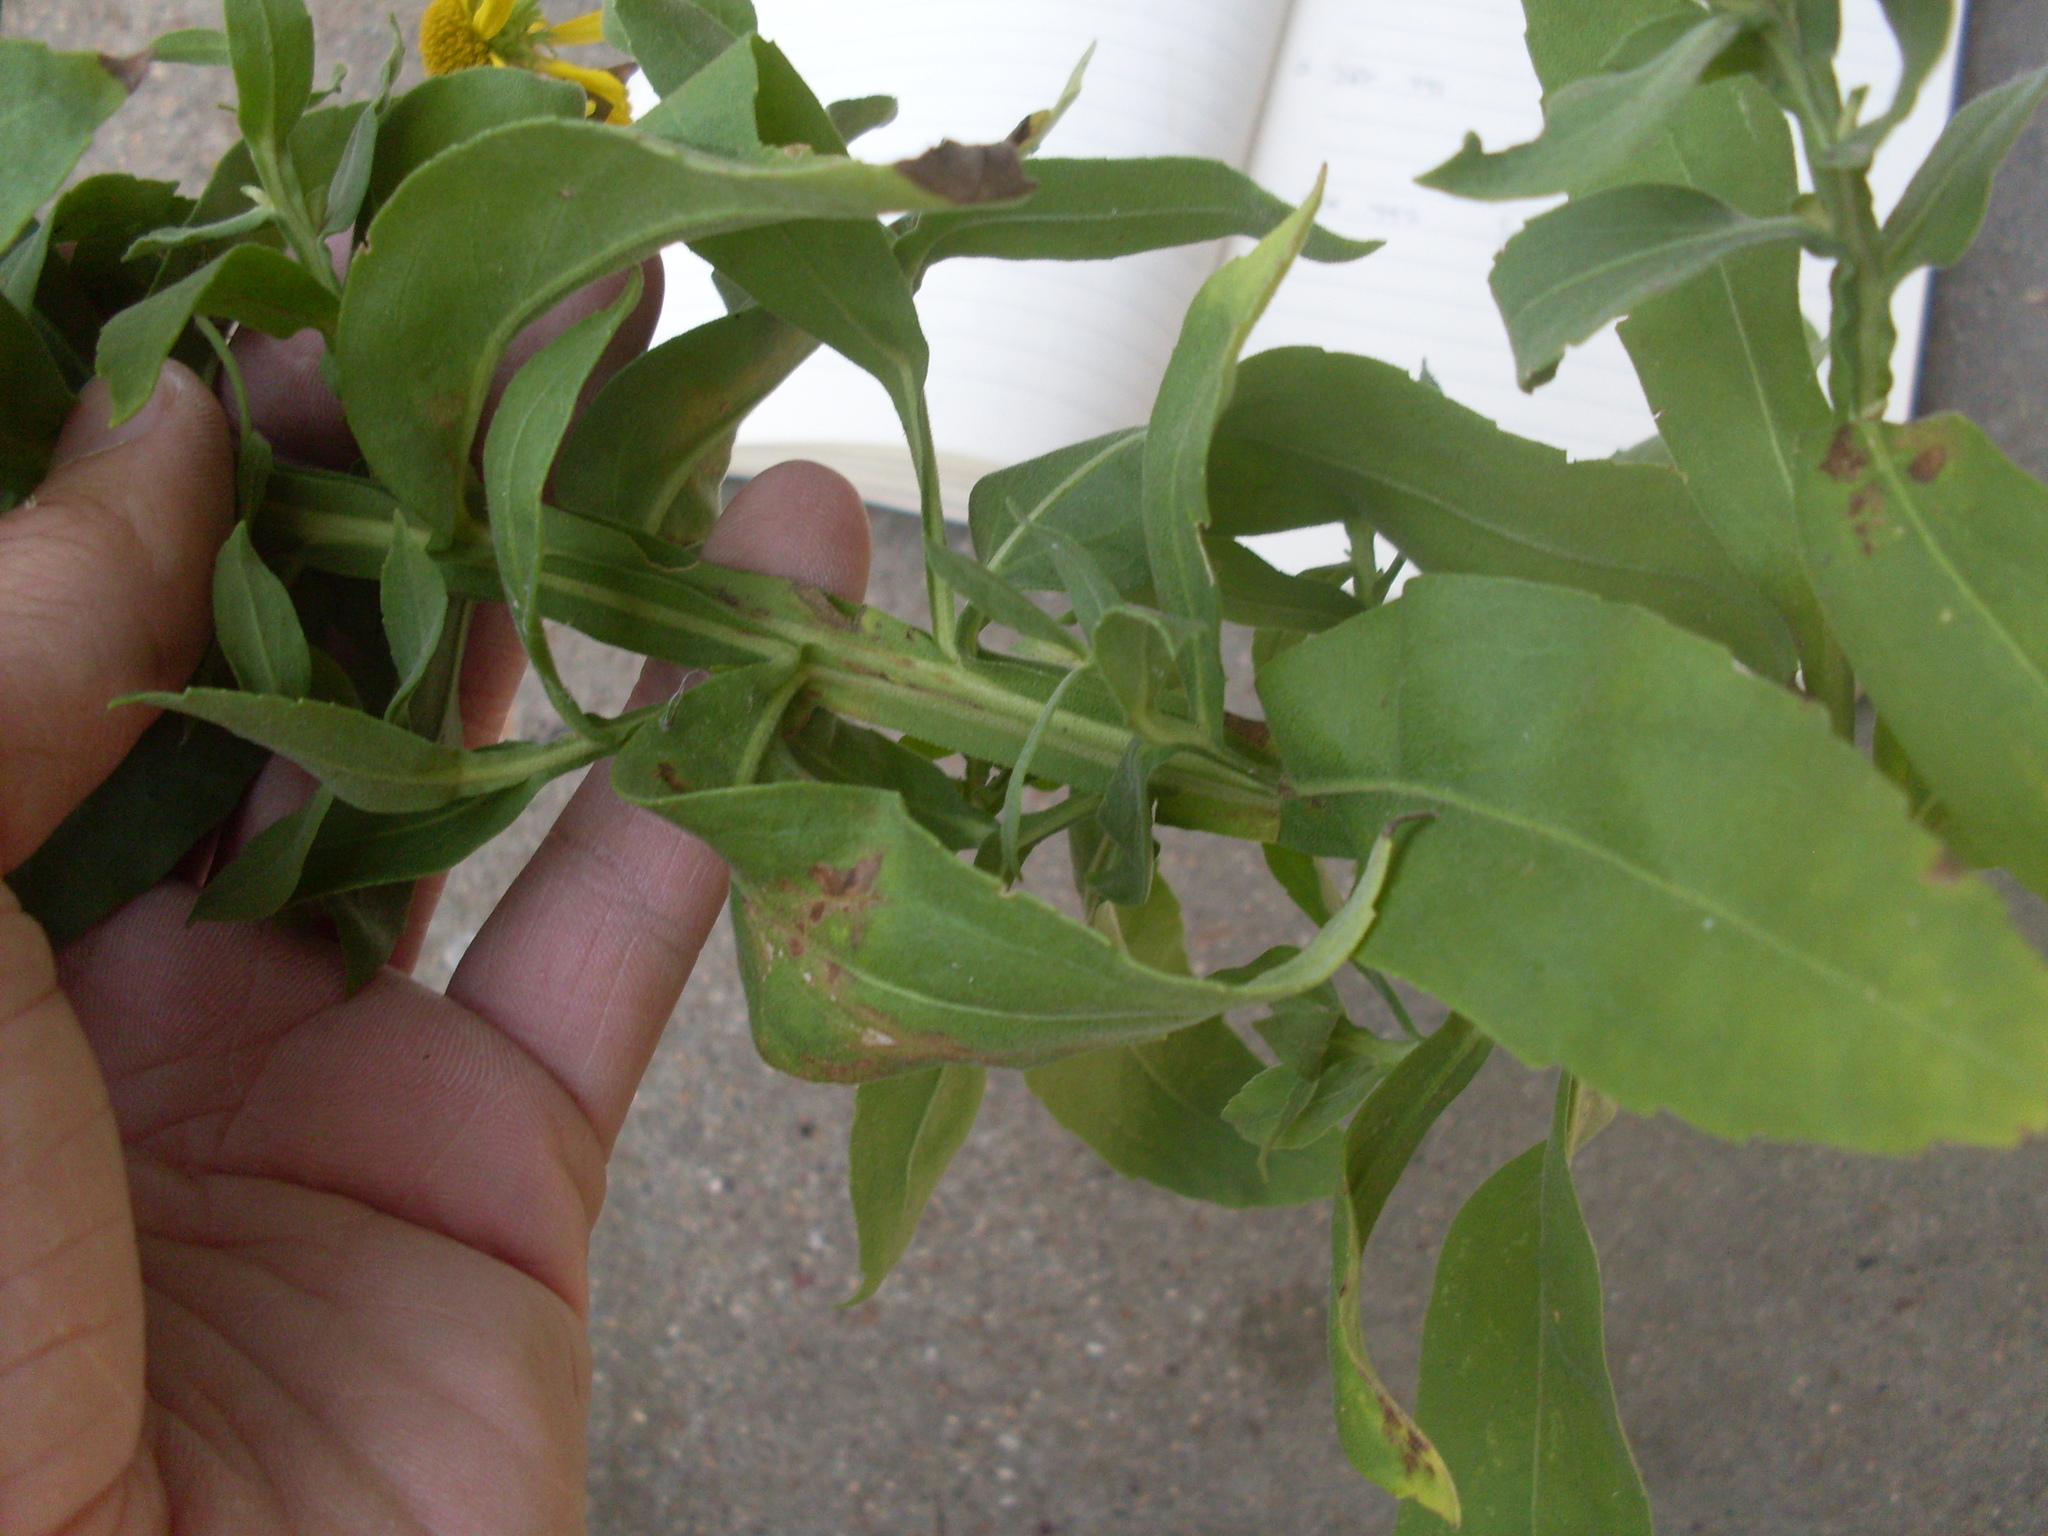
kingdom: Plantae
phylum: Tracheophyta
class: Magnoliopsida
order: Asterales
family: Asteraceae
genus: Helenium
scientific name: Helenium autumnale
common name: Sneezeweed
